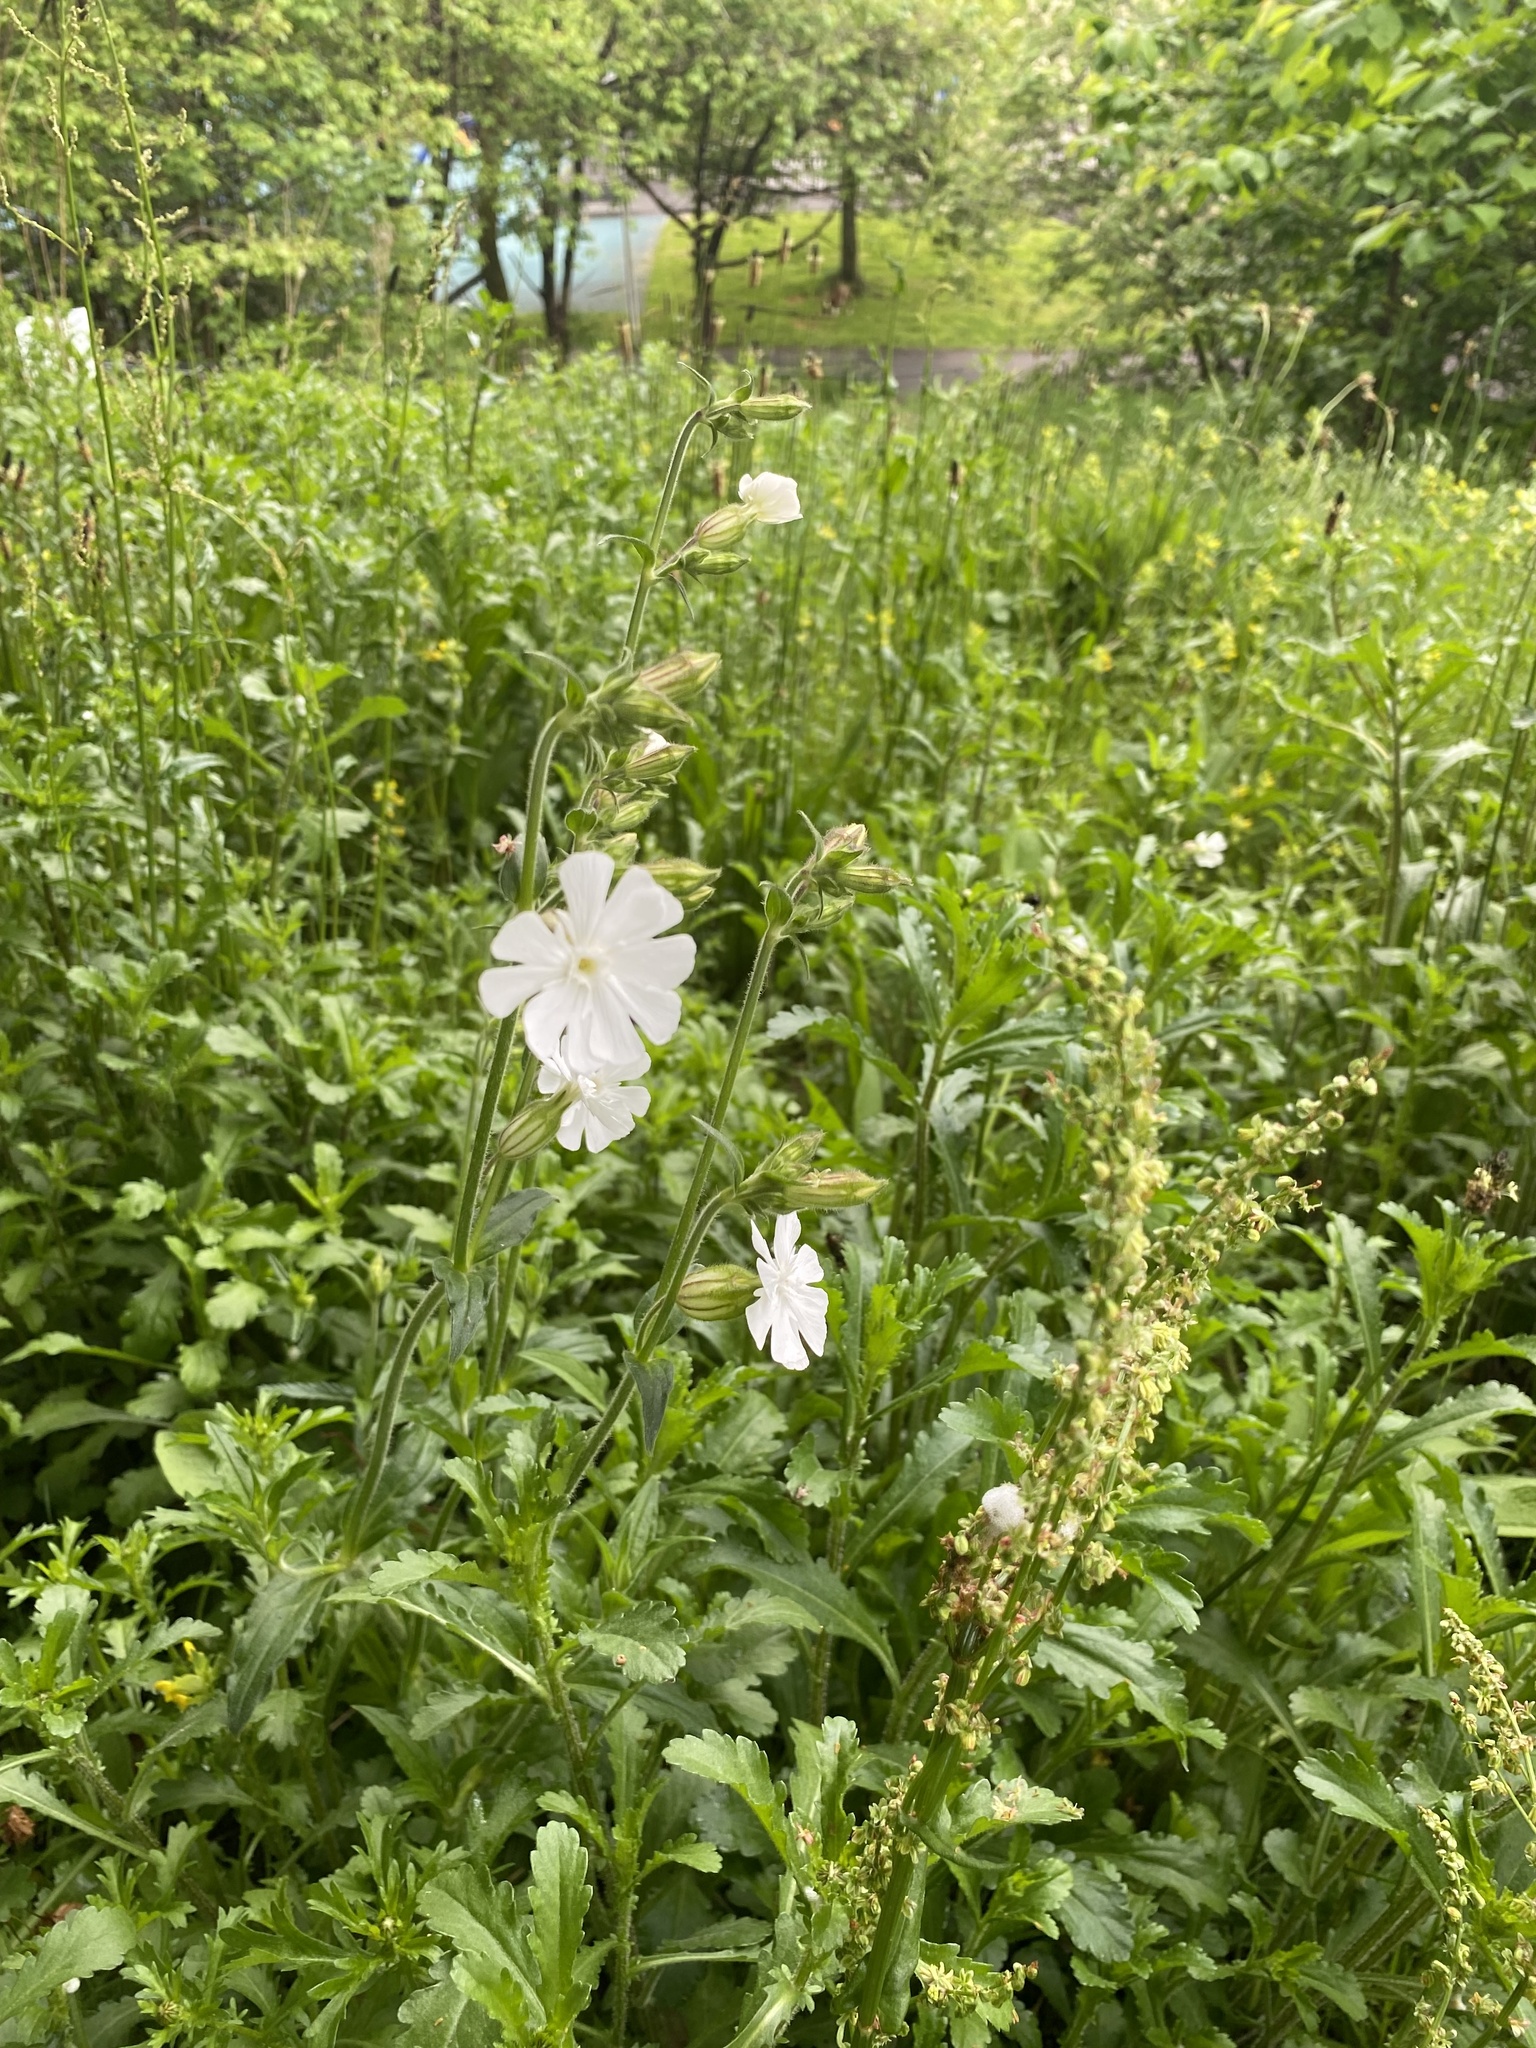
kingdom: Plantae
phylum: Tracheophyta
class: Magnoliopsida
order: Caryophyllales
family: Caryophyllaceae
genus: Silene
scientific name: Silene latifolia
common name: White campion
